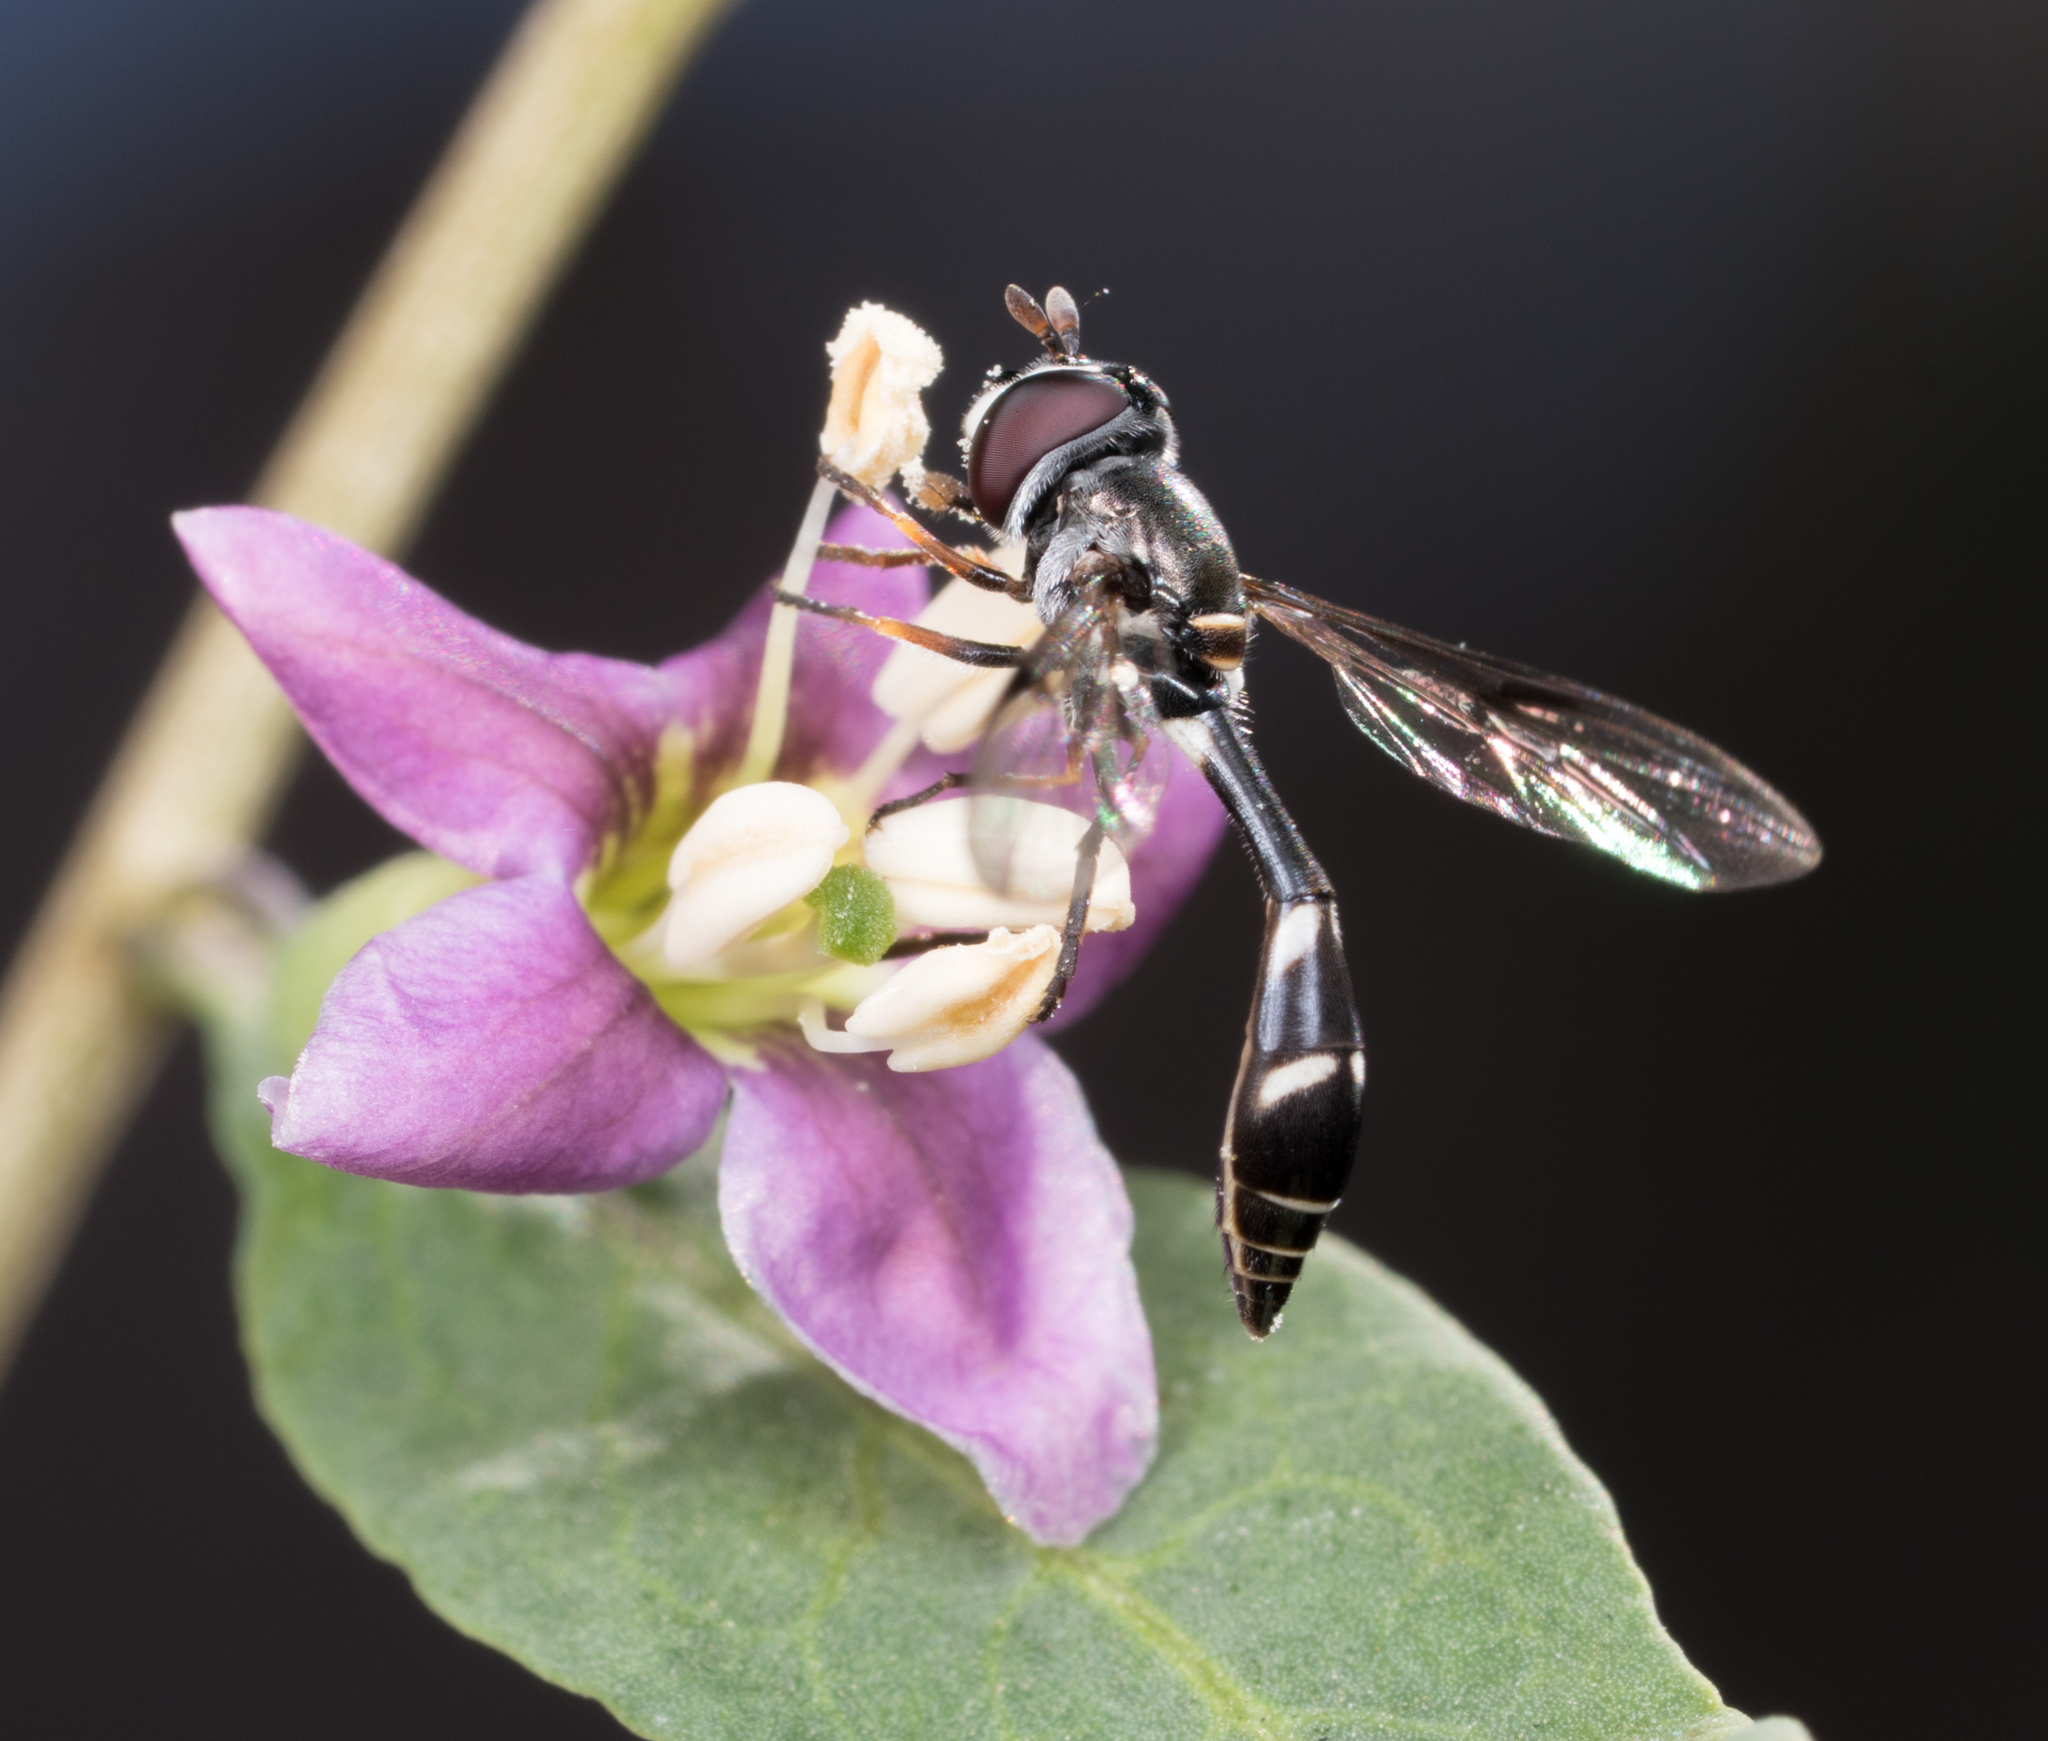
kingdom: Animalia
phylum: Arthropoda
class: Insecta
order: Diptera
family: Syrphidae
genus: Dioprosopa
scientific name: Dioprosopa clavatus
